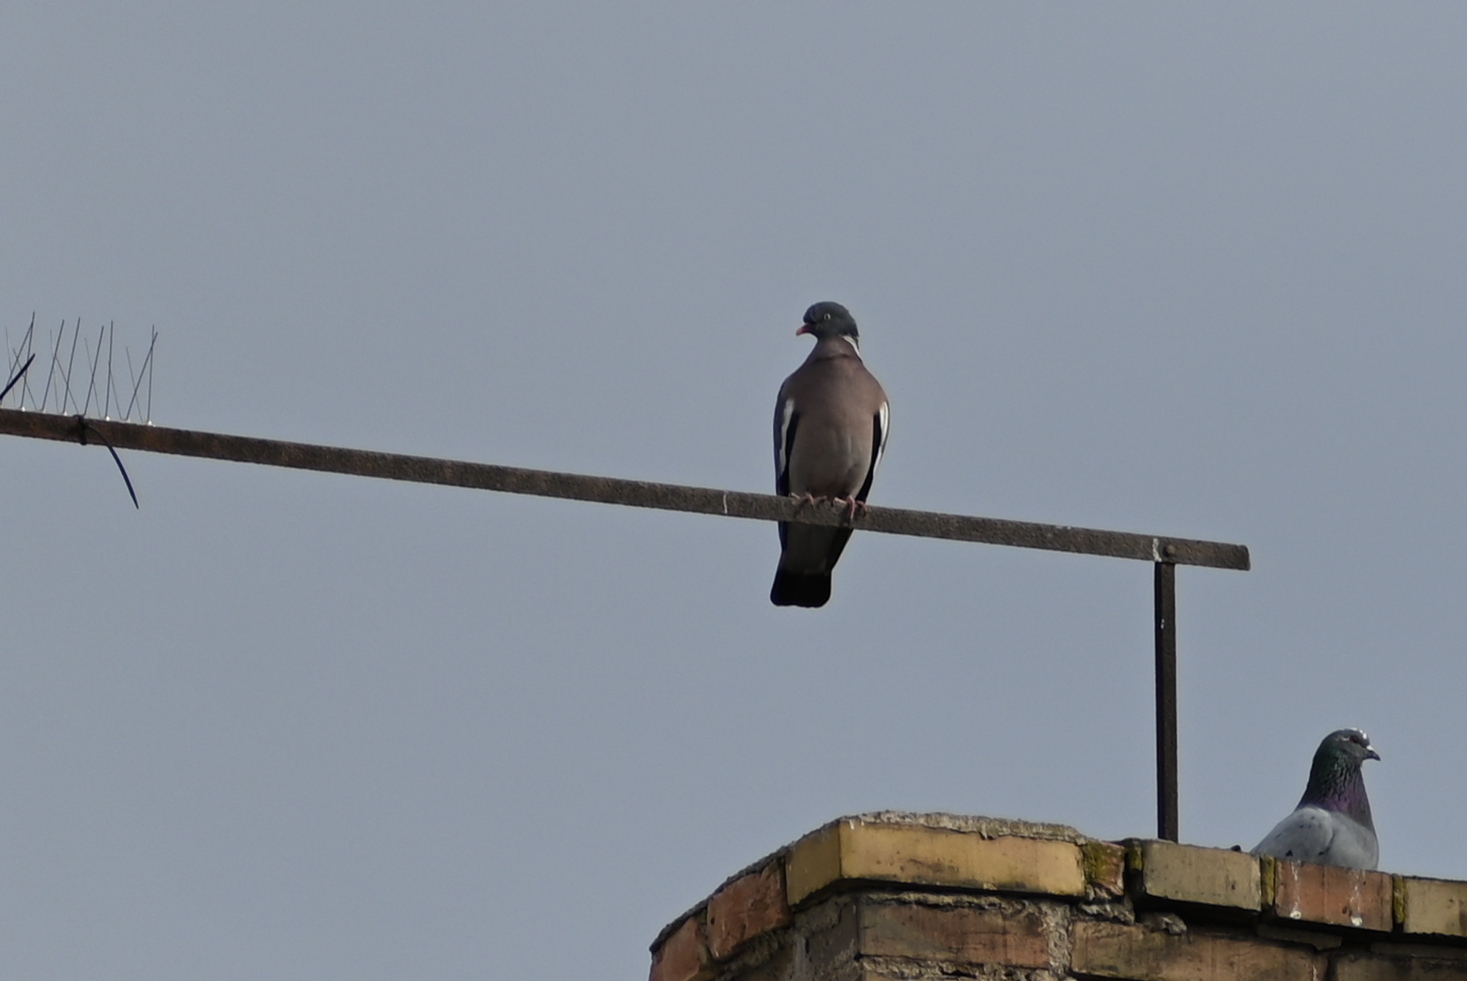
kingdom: Animalia
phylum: Chordata
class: Aves
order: Columbiformes
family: Columbidae
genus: Columba
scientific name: Columba palumbus
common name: Common wood pigeon
